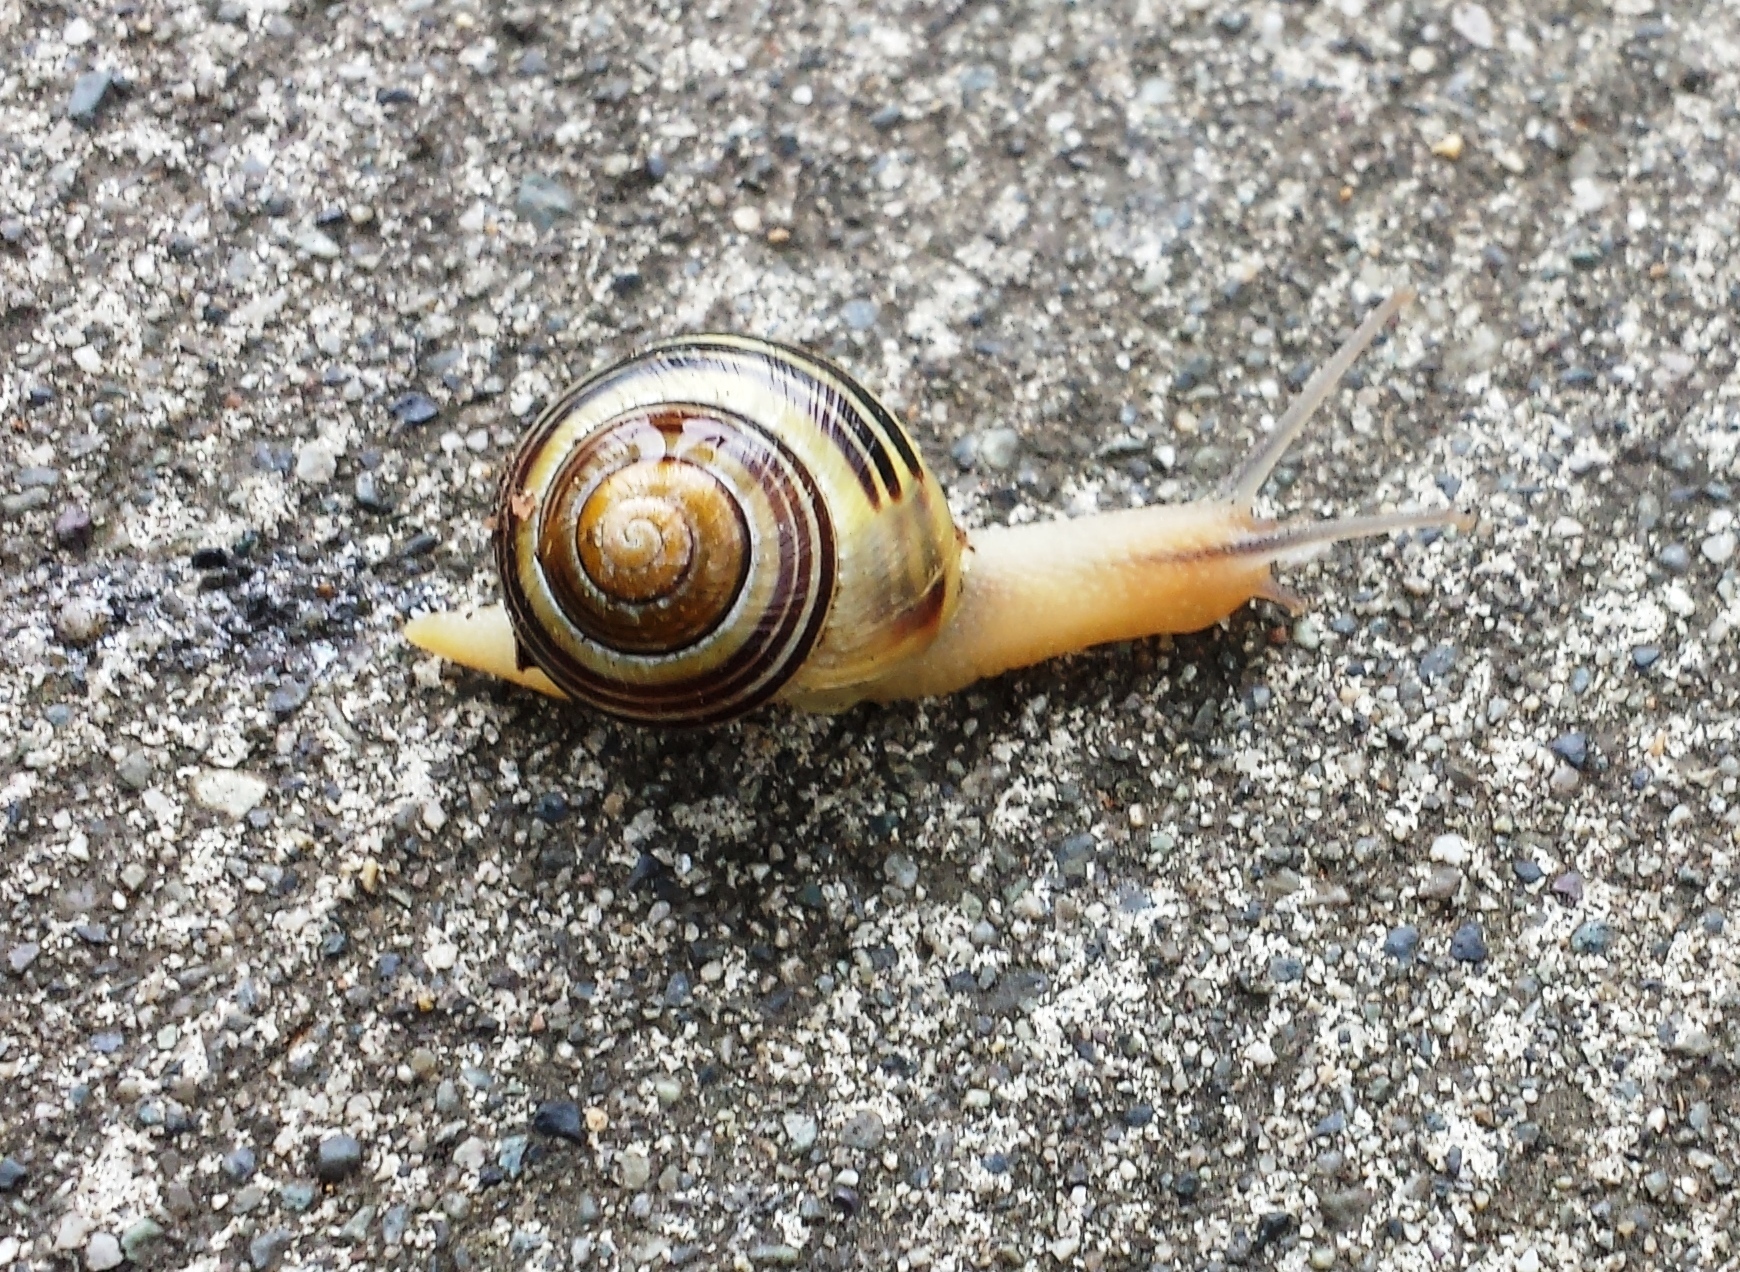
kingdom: Animalia
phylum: Mollusca
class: Gastropoda
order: Stylommatophora
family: Helicidae
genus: Cepaea
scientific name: Cepaea nemoralis
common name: Grovesnail
